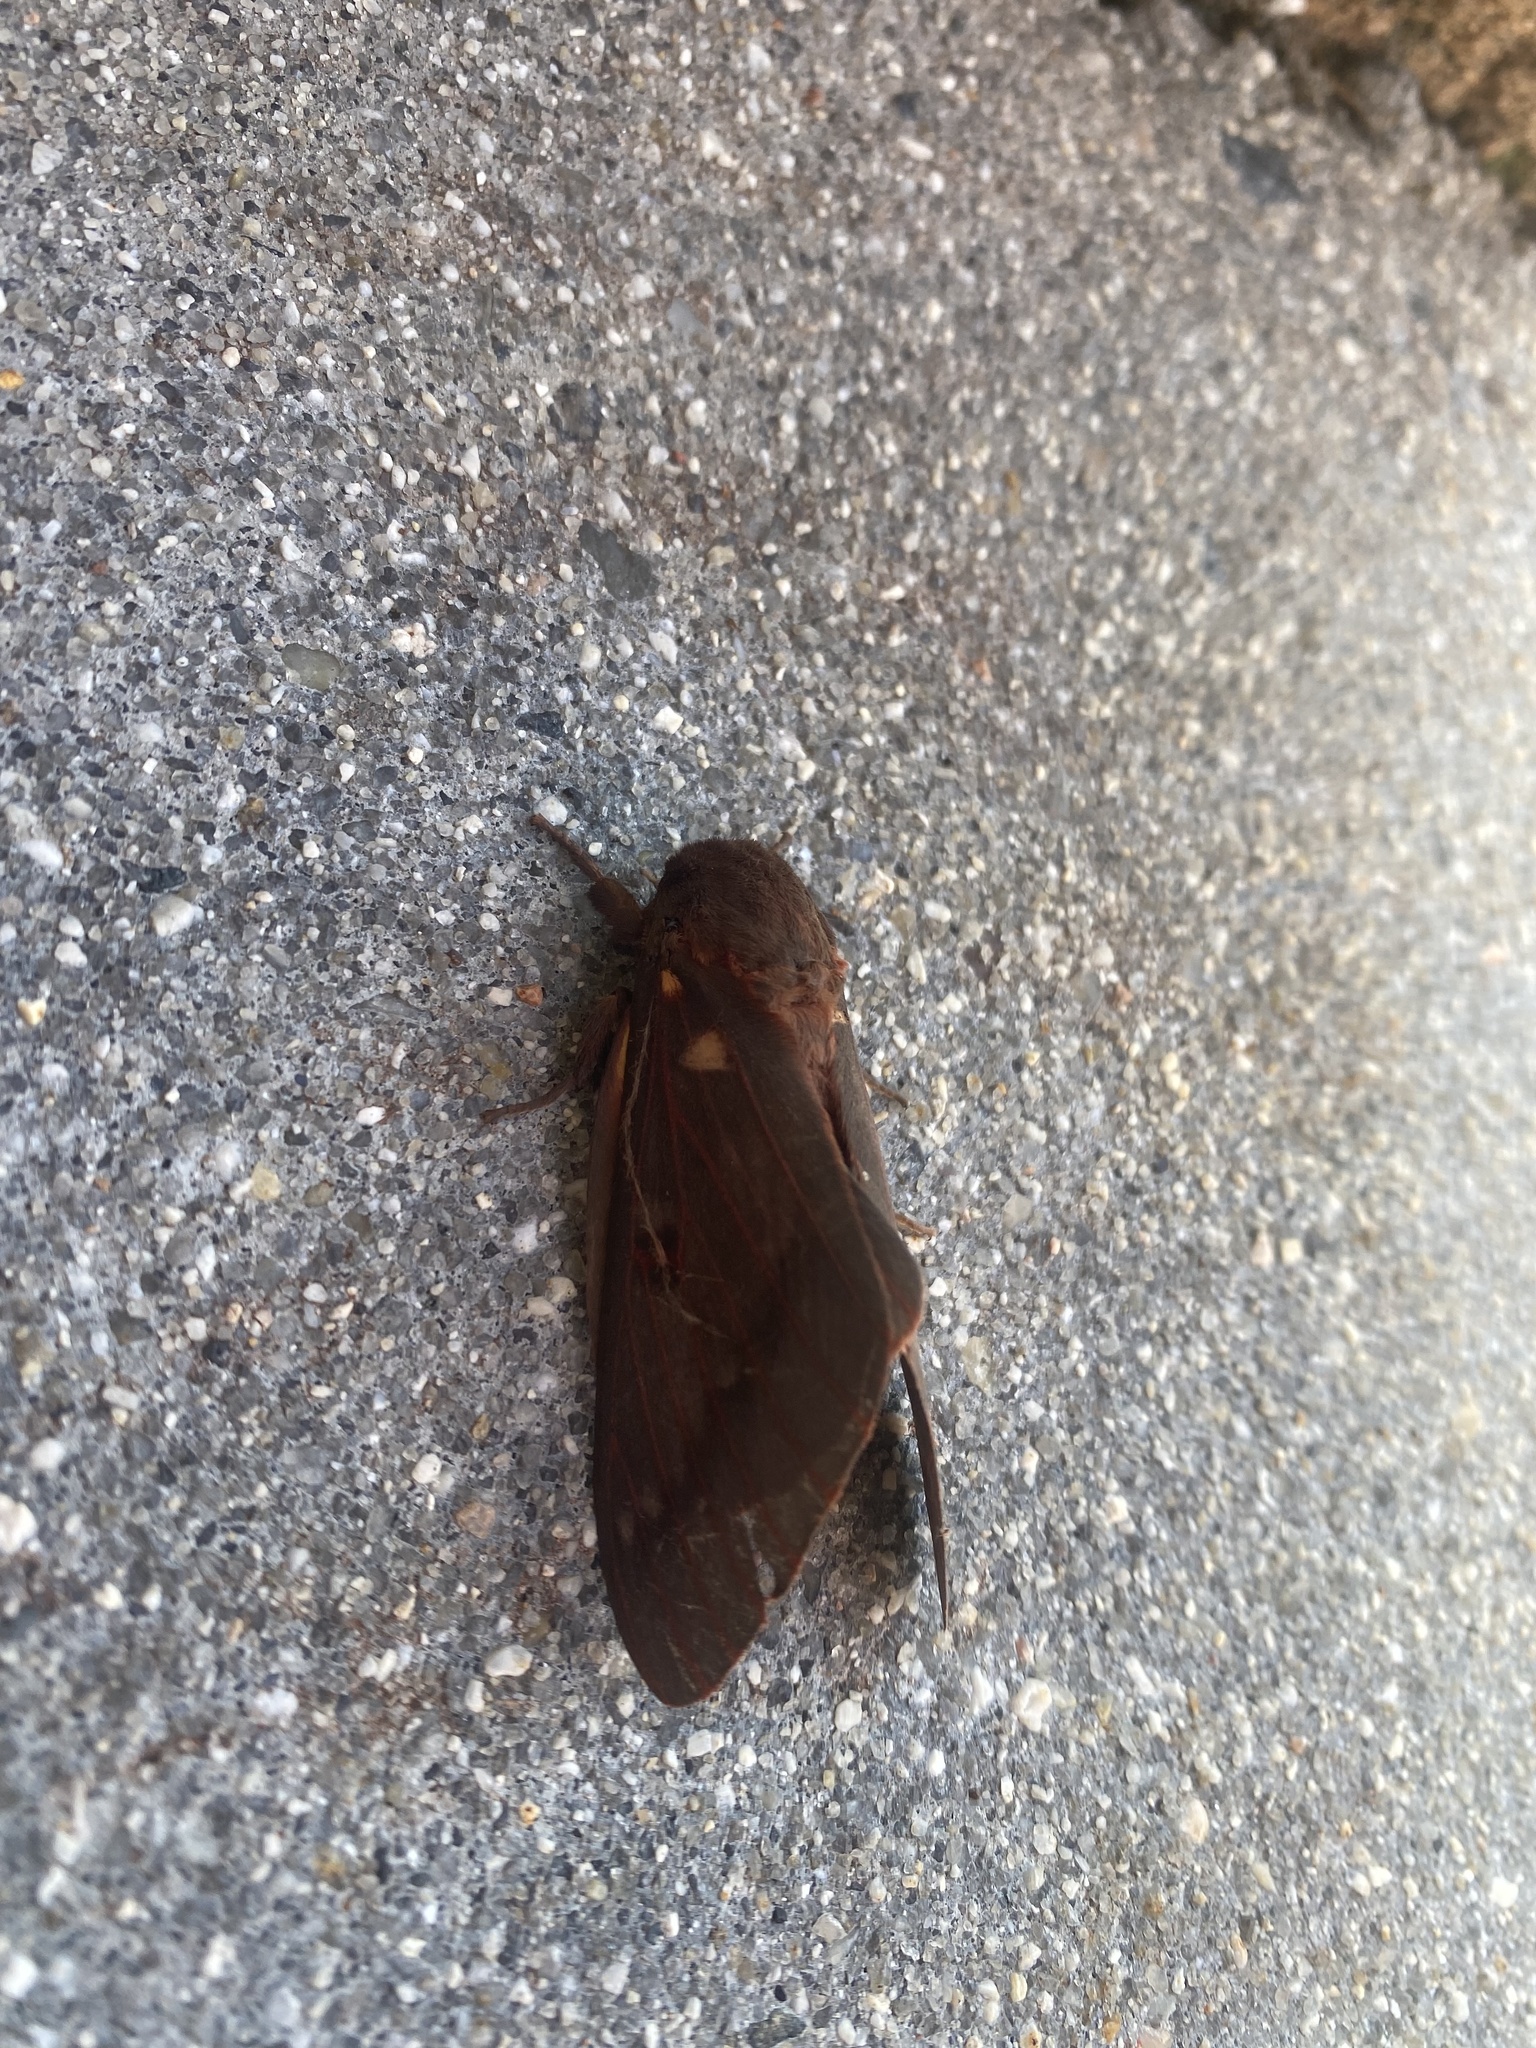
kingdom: Animalia
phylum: Arthropoda
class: Insecta
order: Lepidoptera
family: Saturniidae
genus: Citheronia
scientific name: Citheronia sepulcralis
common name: Pine-devil moth
